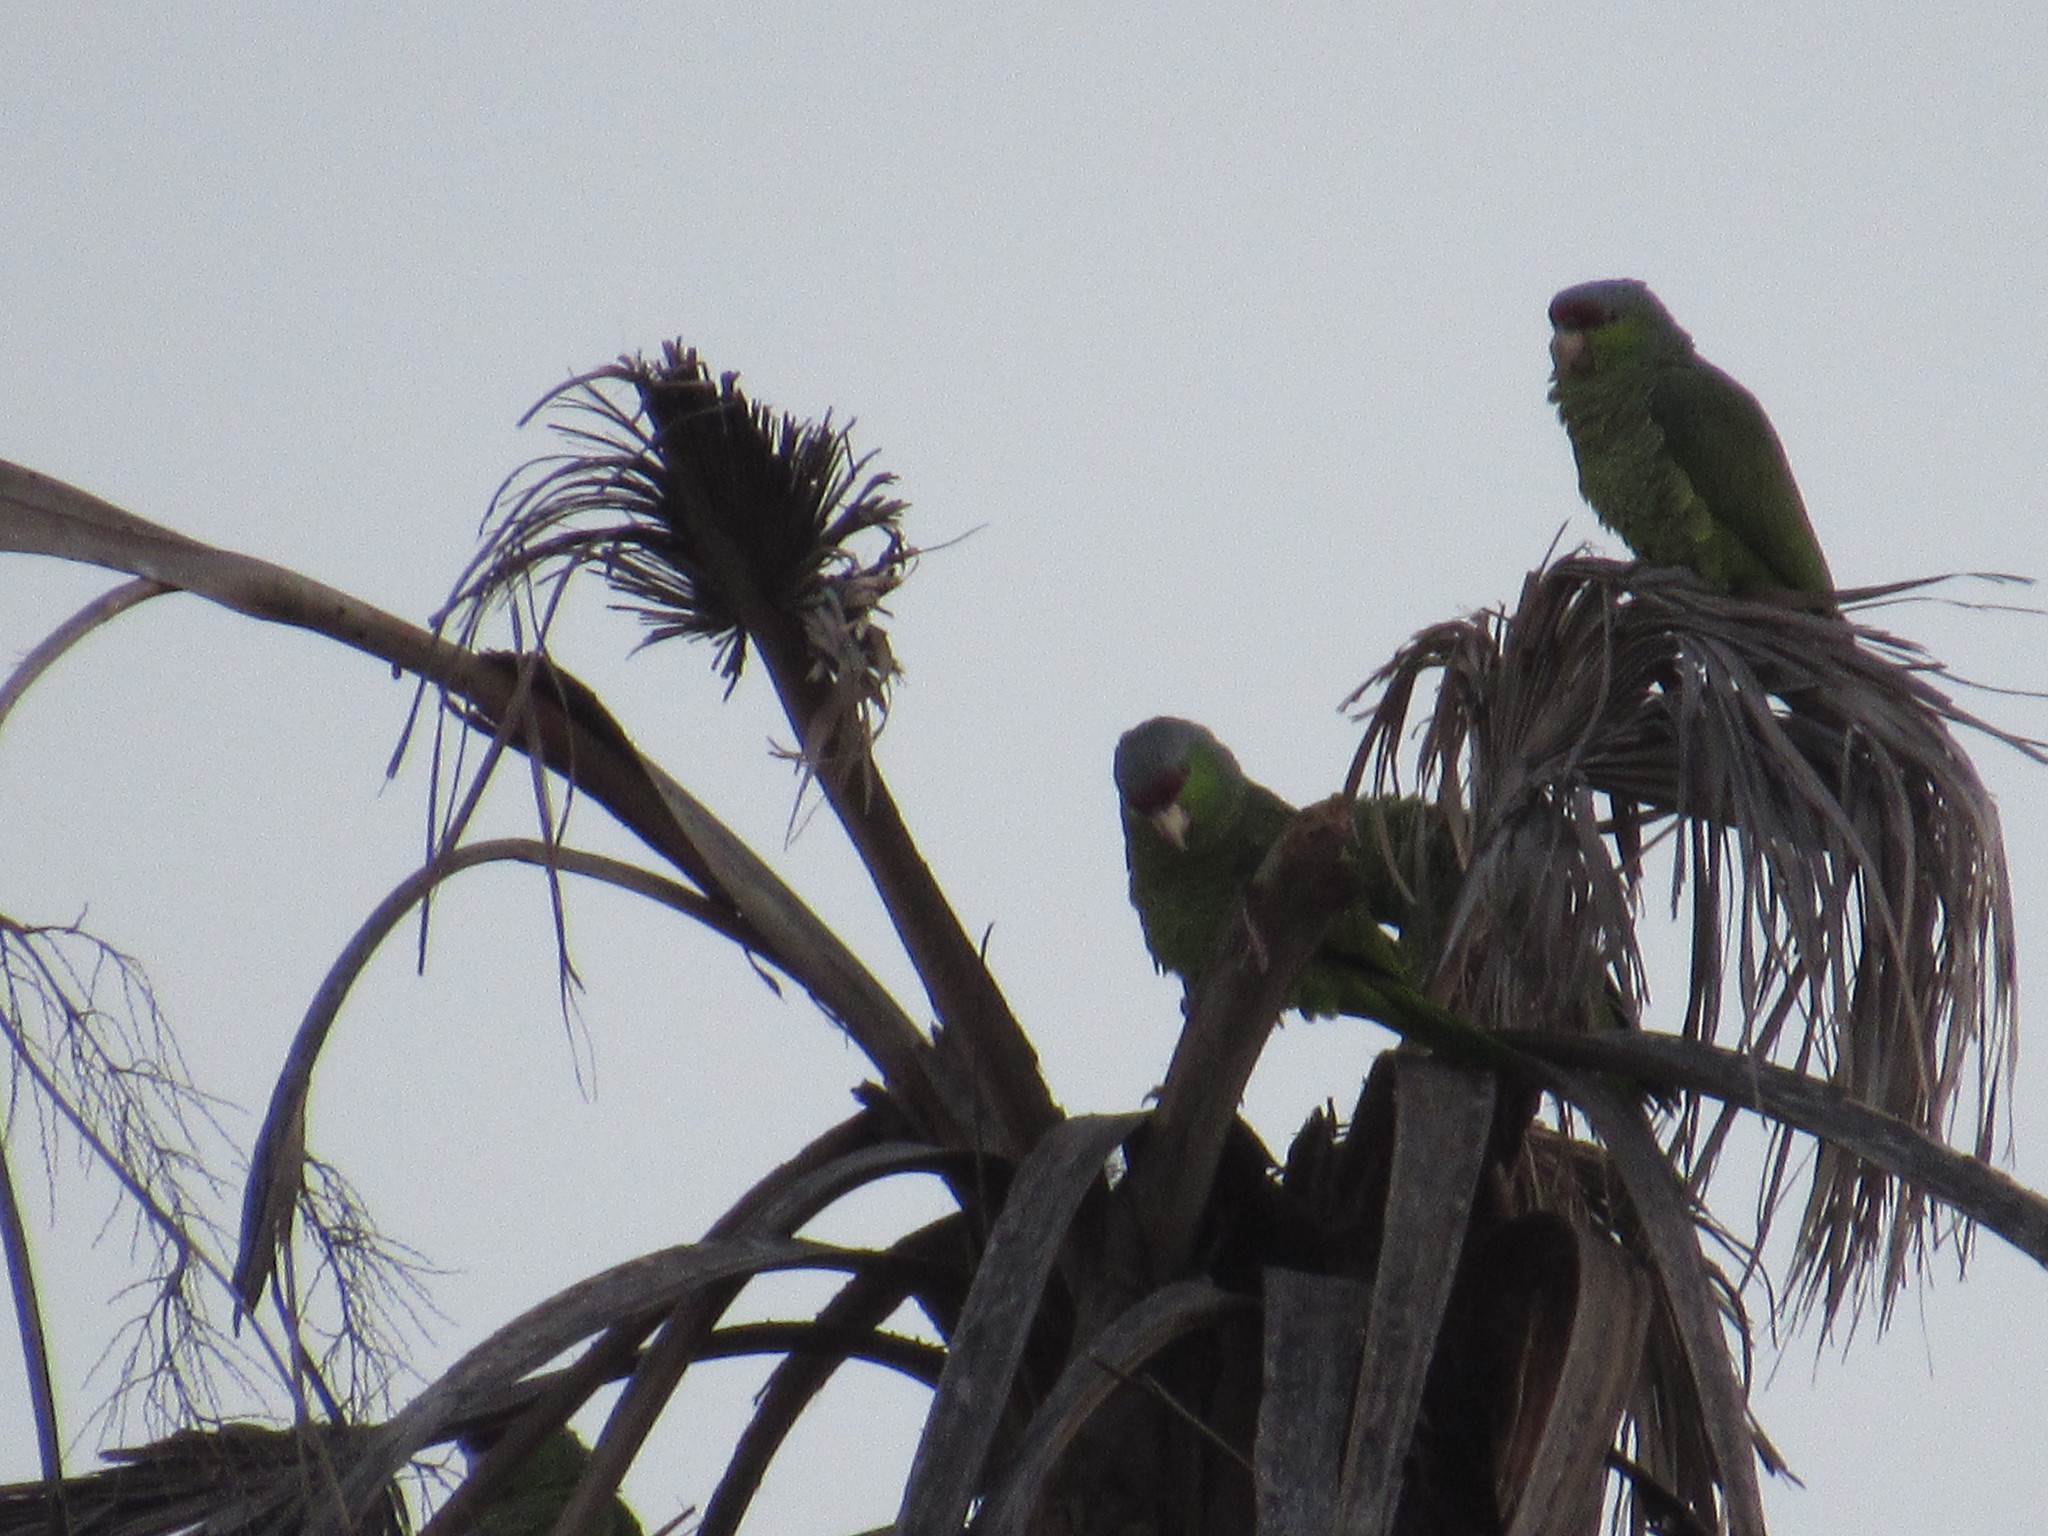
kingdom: Animalia
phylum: Chordata
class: Aves
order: Psittaciformes
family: Psittacidae
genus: Amazona
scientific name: Amazona finschi
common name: Lilac-crowned amazon
